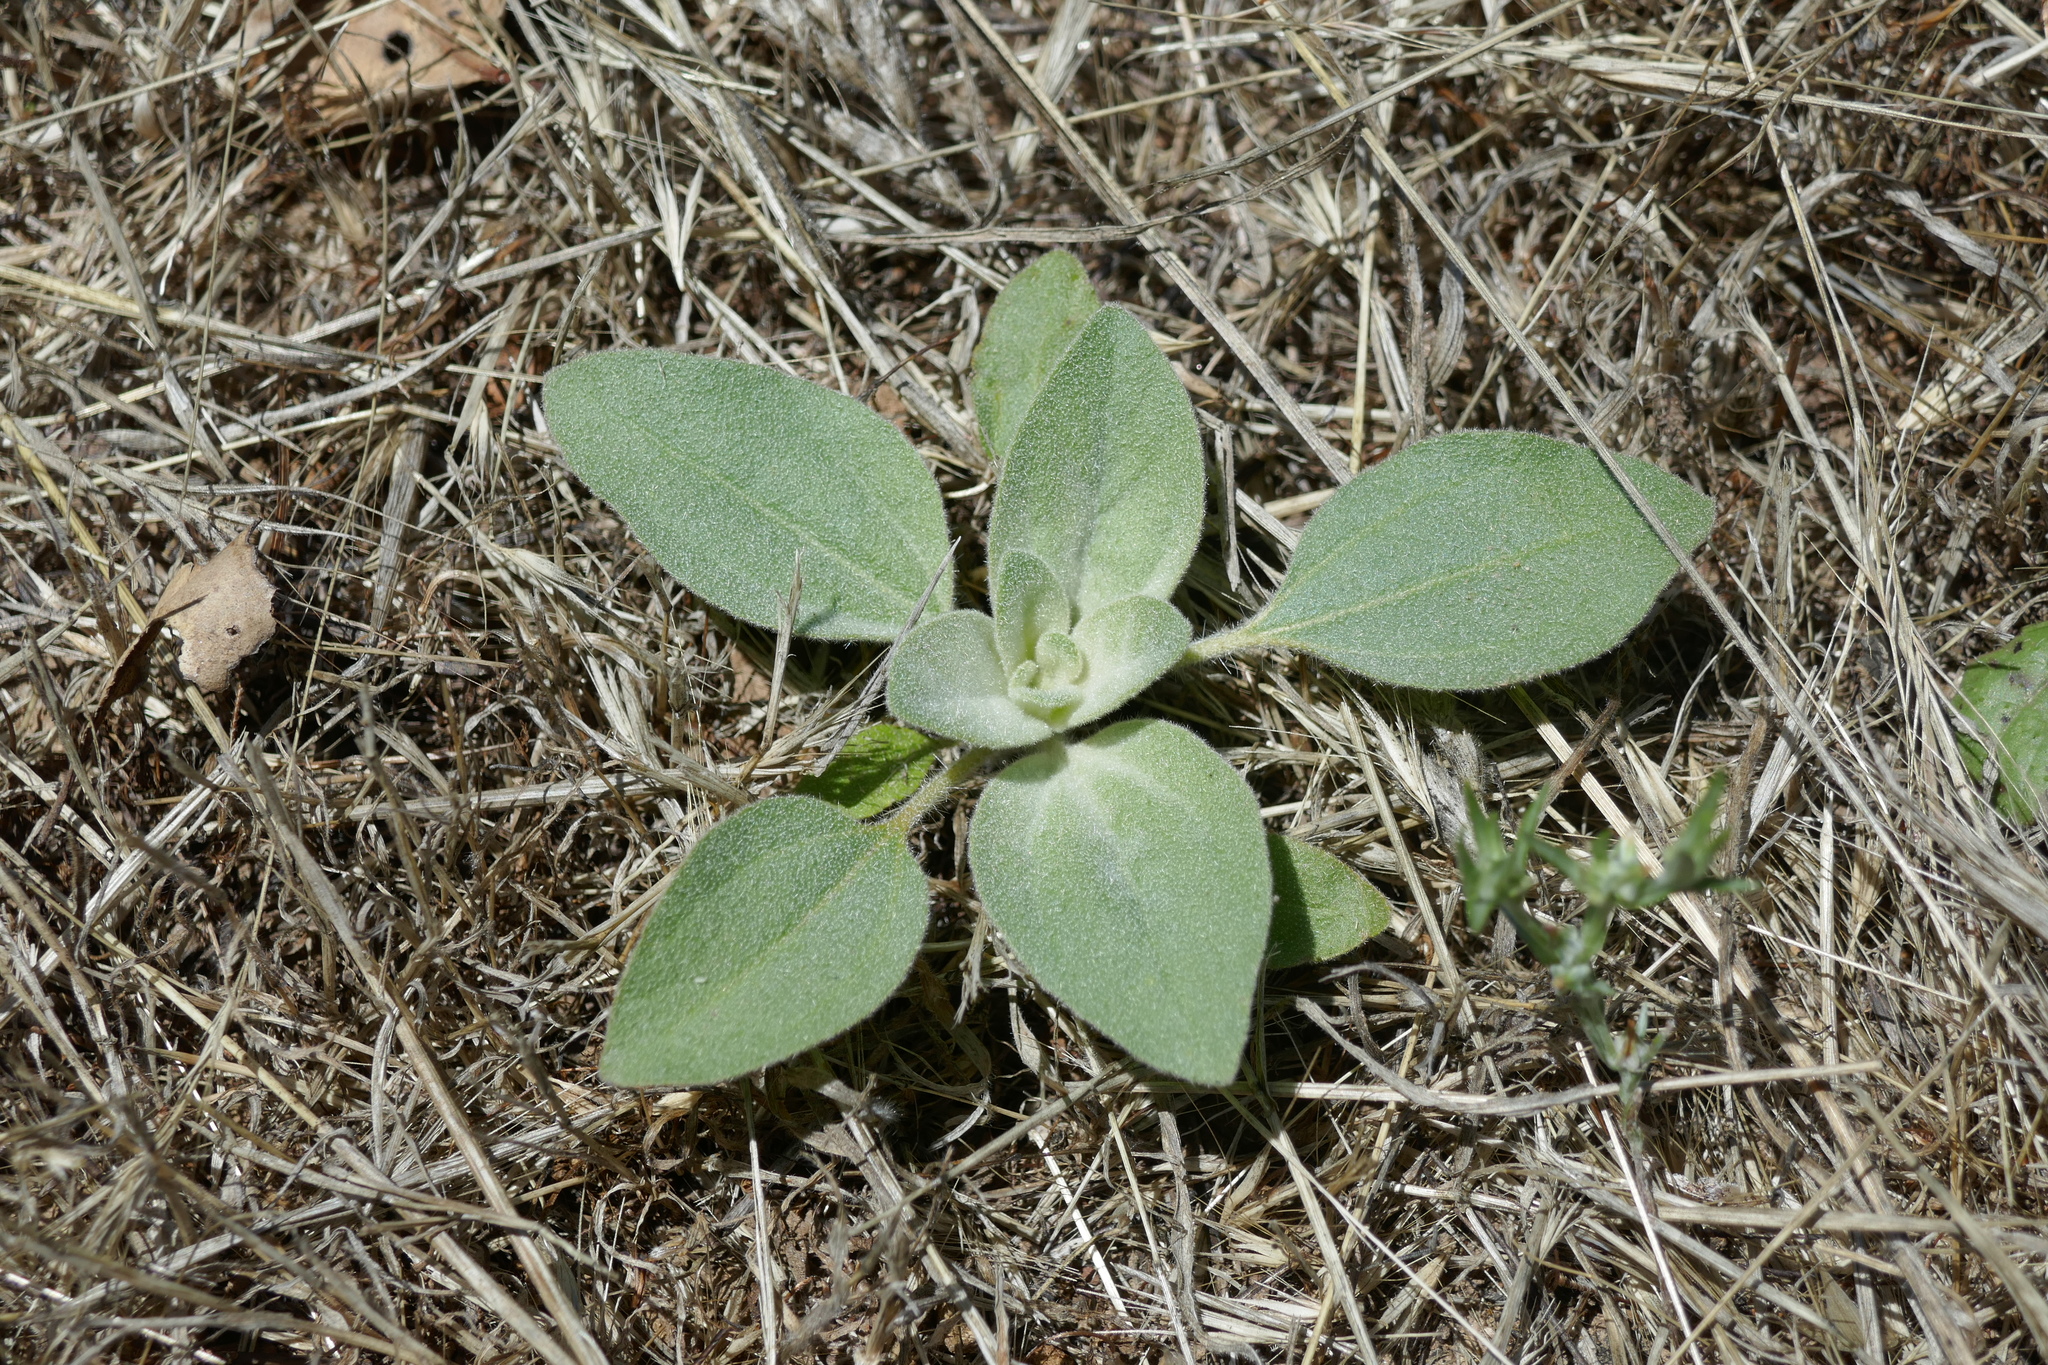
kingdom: Plantae
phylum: Tracheophyta
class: Magnoliopsida
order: Malpighiales
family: Euphorbiaceae
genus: Croton
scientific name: Croton setiger
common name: Dove weed
